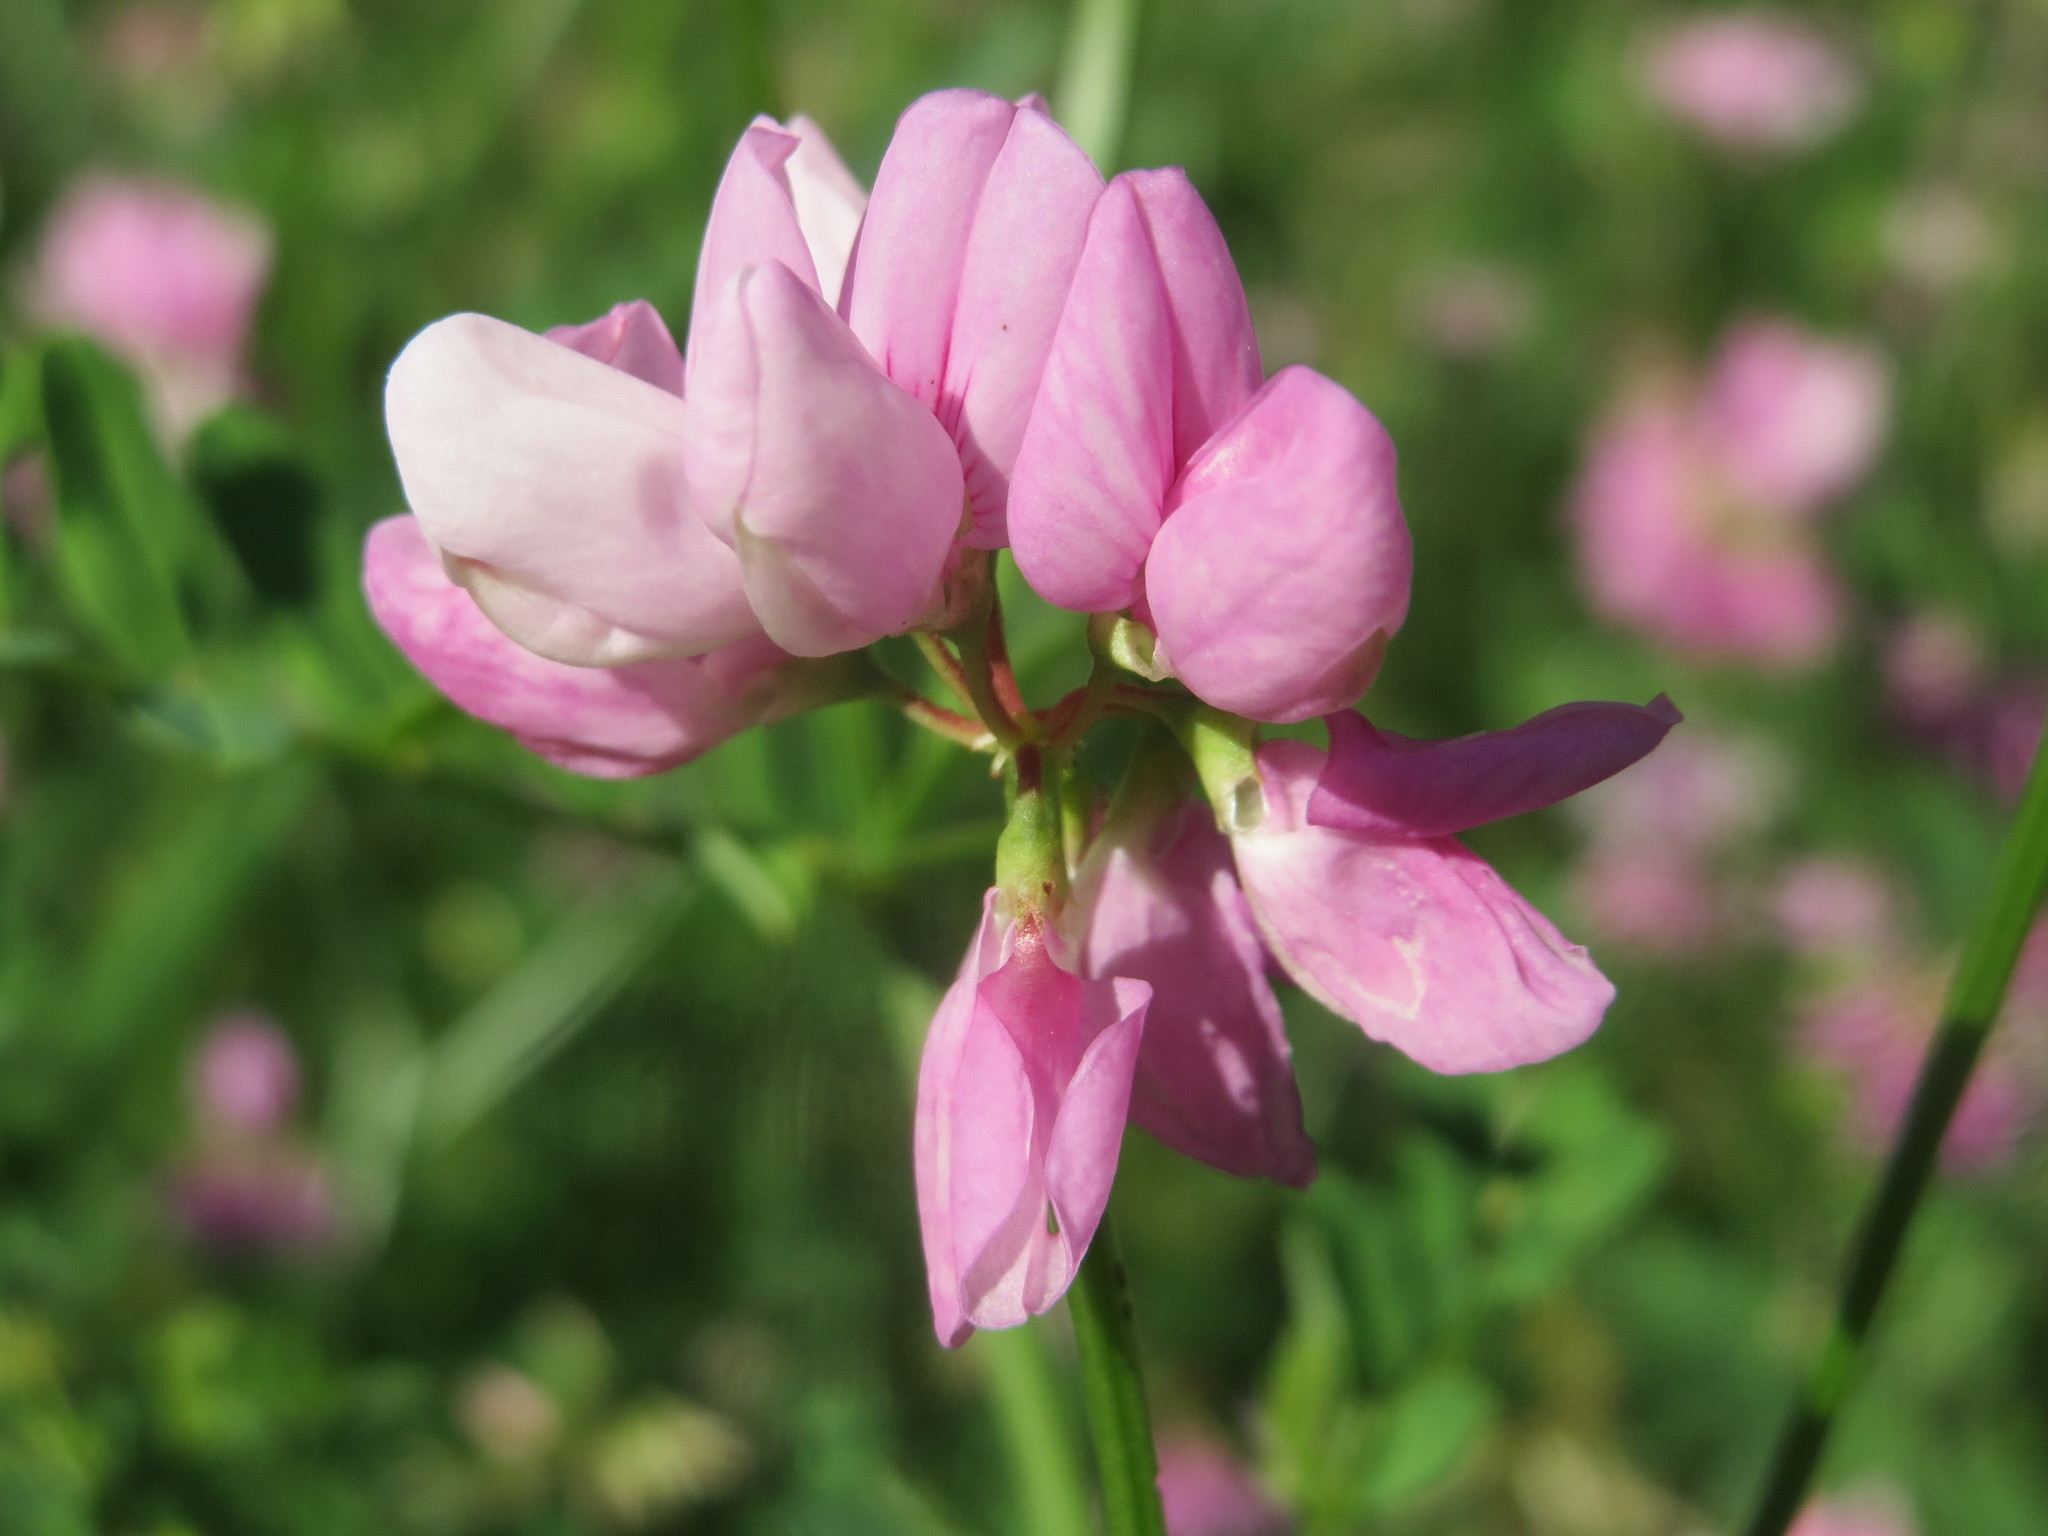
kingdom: Plantae
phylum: Tracheophyta
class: Magnoliopsida
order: Fabales
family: Fabaceae
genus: Coronilla
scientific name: Coronilla varia
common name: Crownvetch
